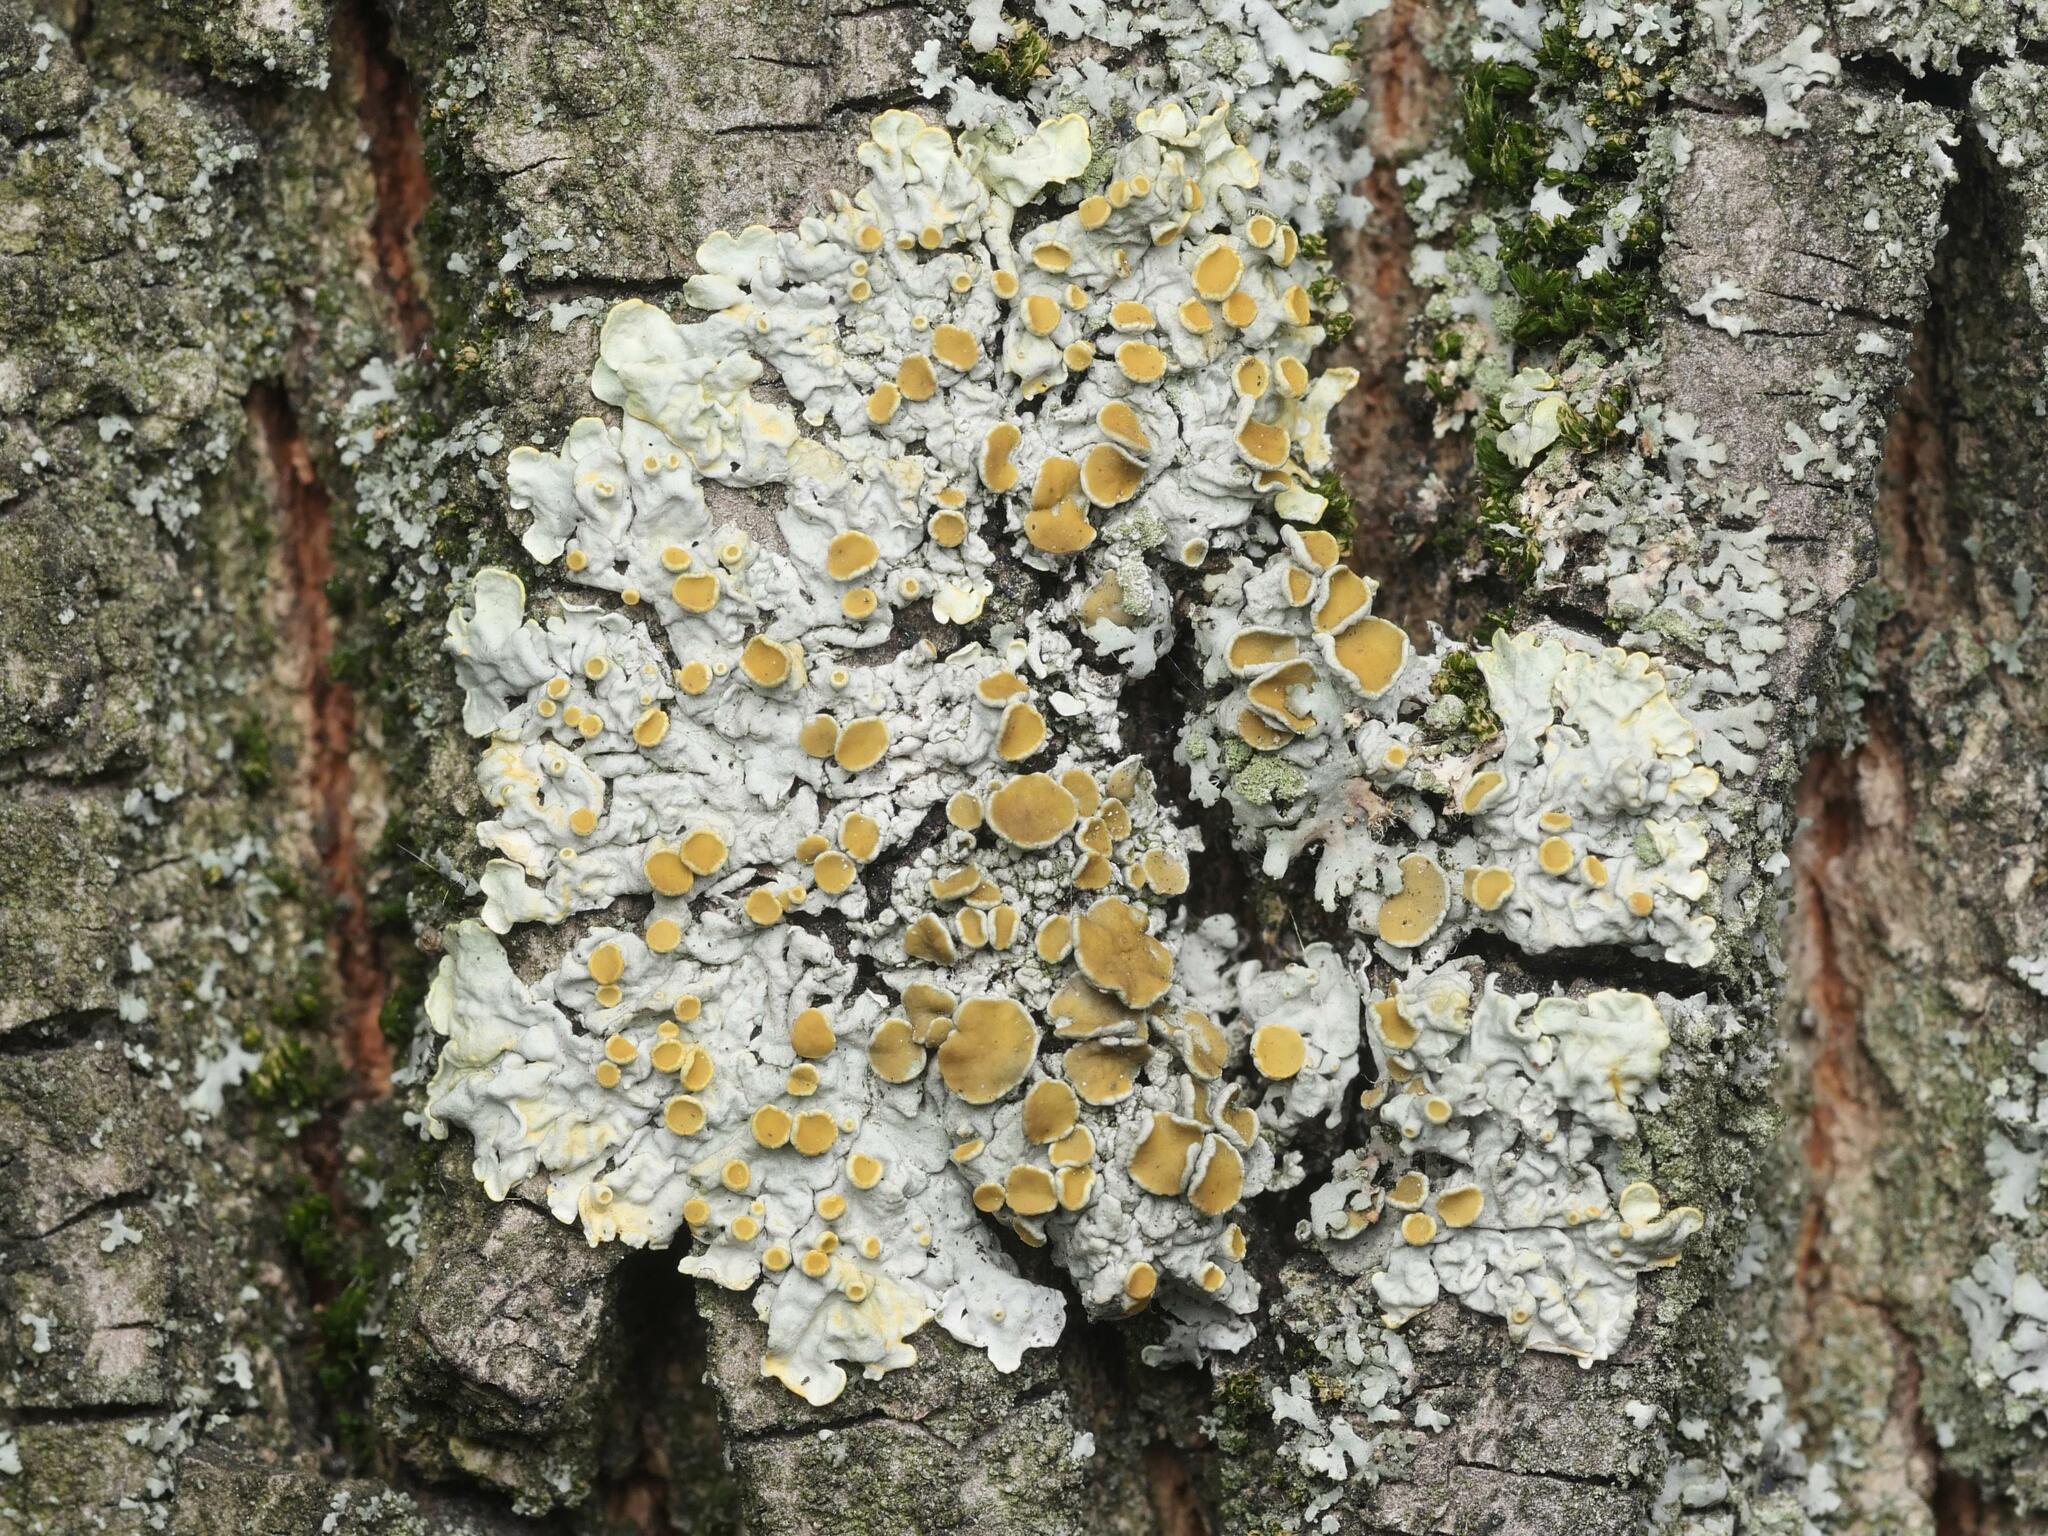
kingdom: Fungi
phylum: Ascomycota
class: Lecanoromycetes
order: Teloschistales
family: Teloschistaceae
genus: Xanthoria
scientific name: Xanthoria parietina
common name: Common orange lichen
